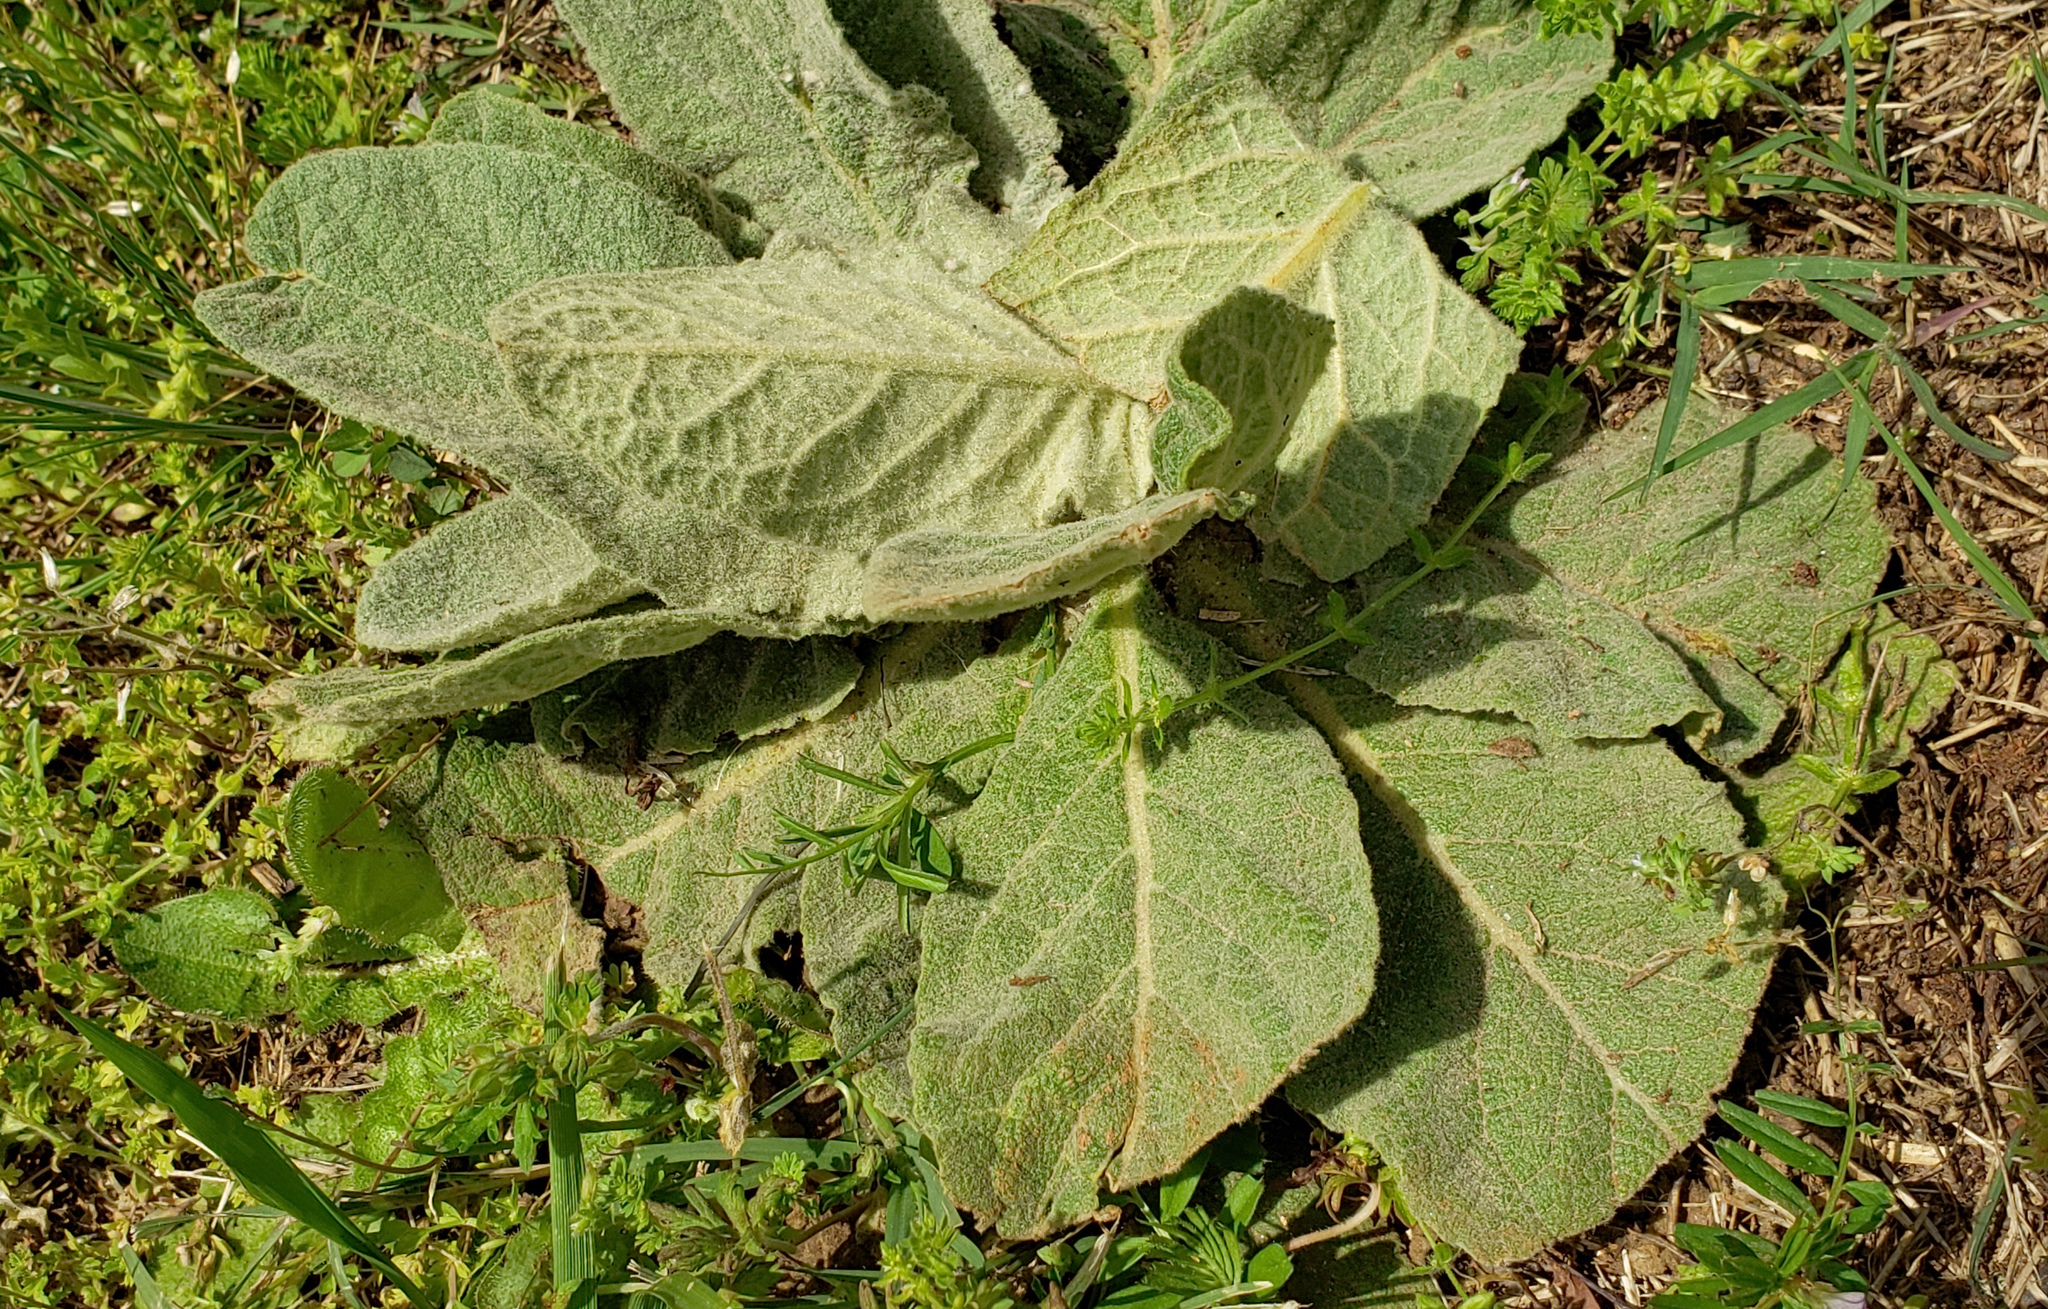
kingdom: Plantae
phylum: Tracheophyta
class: Magnoliopsida
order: Lamiales
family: Scrophulariaceae
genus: Verbascum
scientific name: Verbascum thapsus
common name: Common mullein
